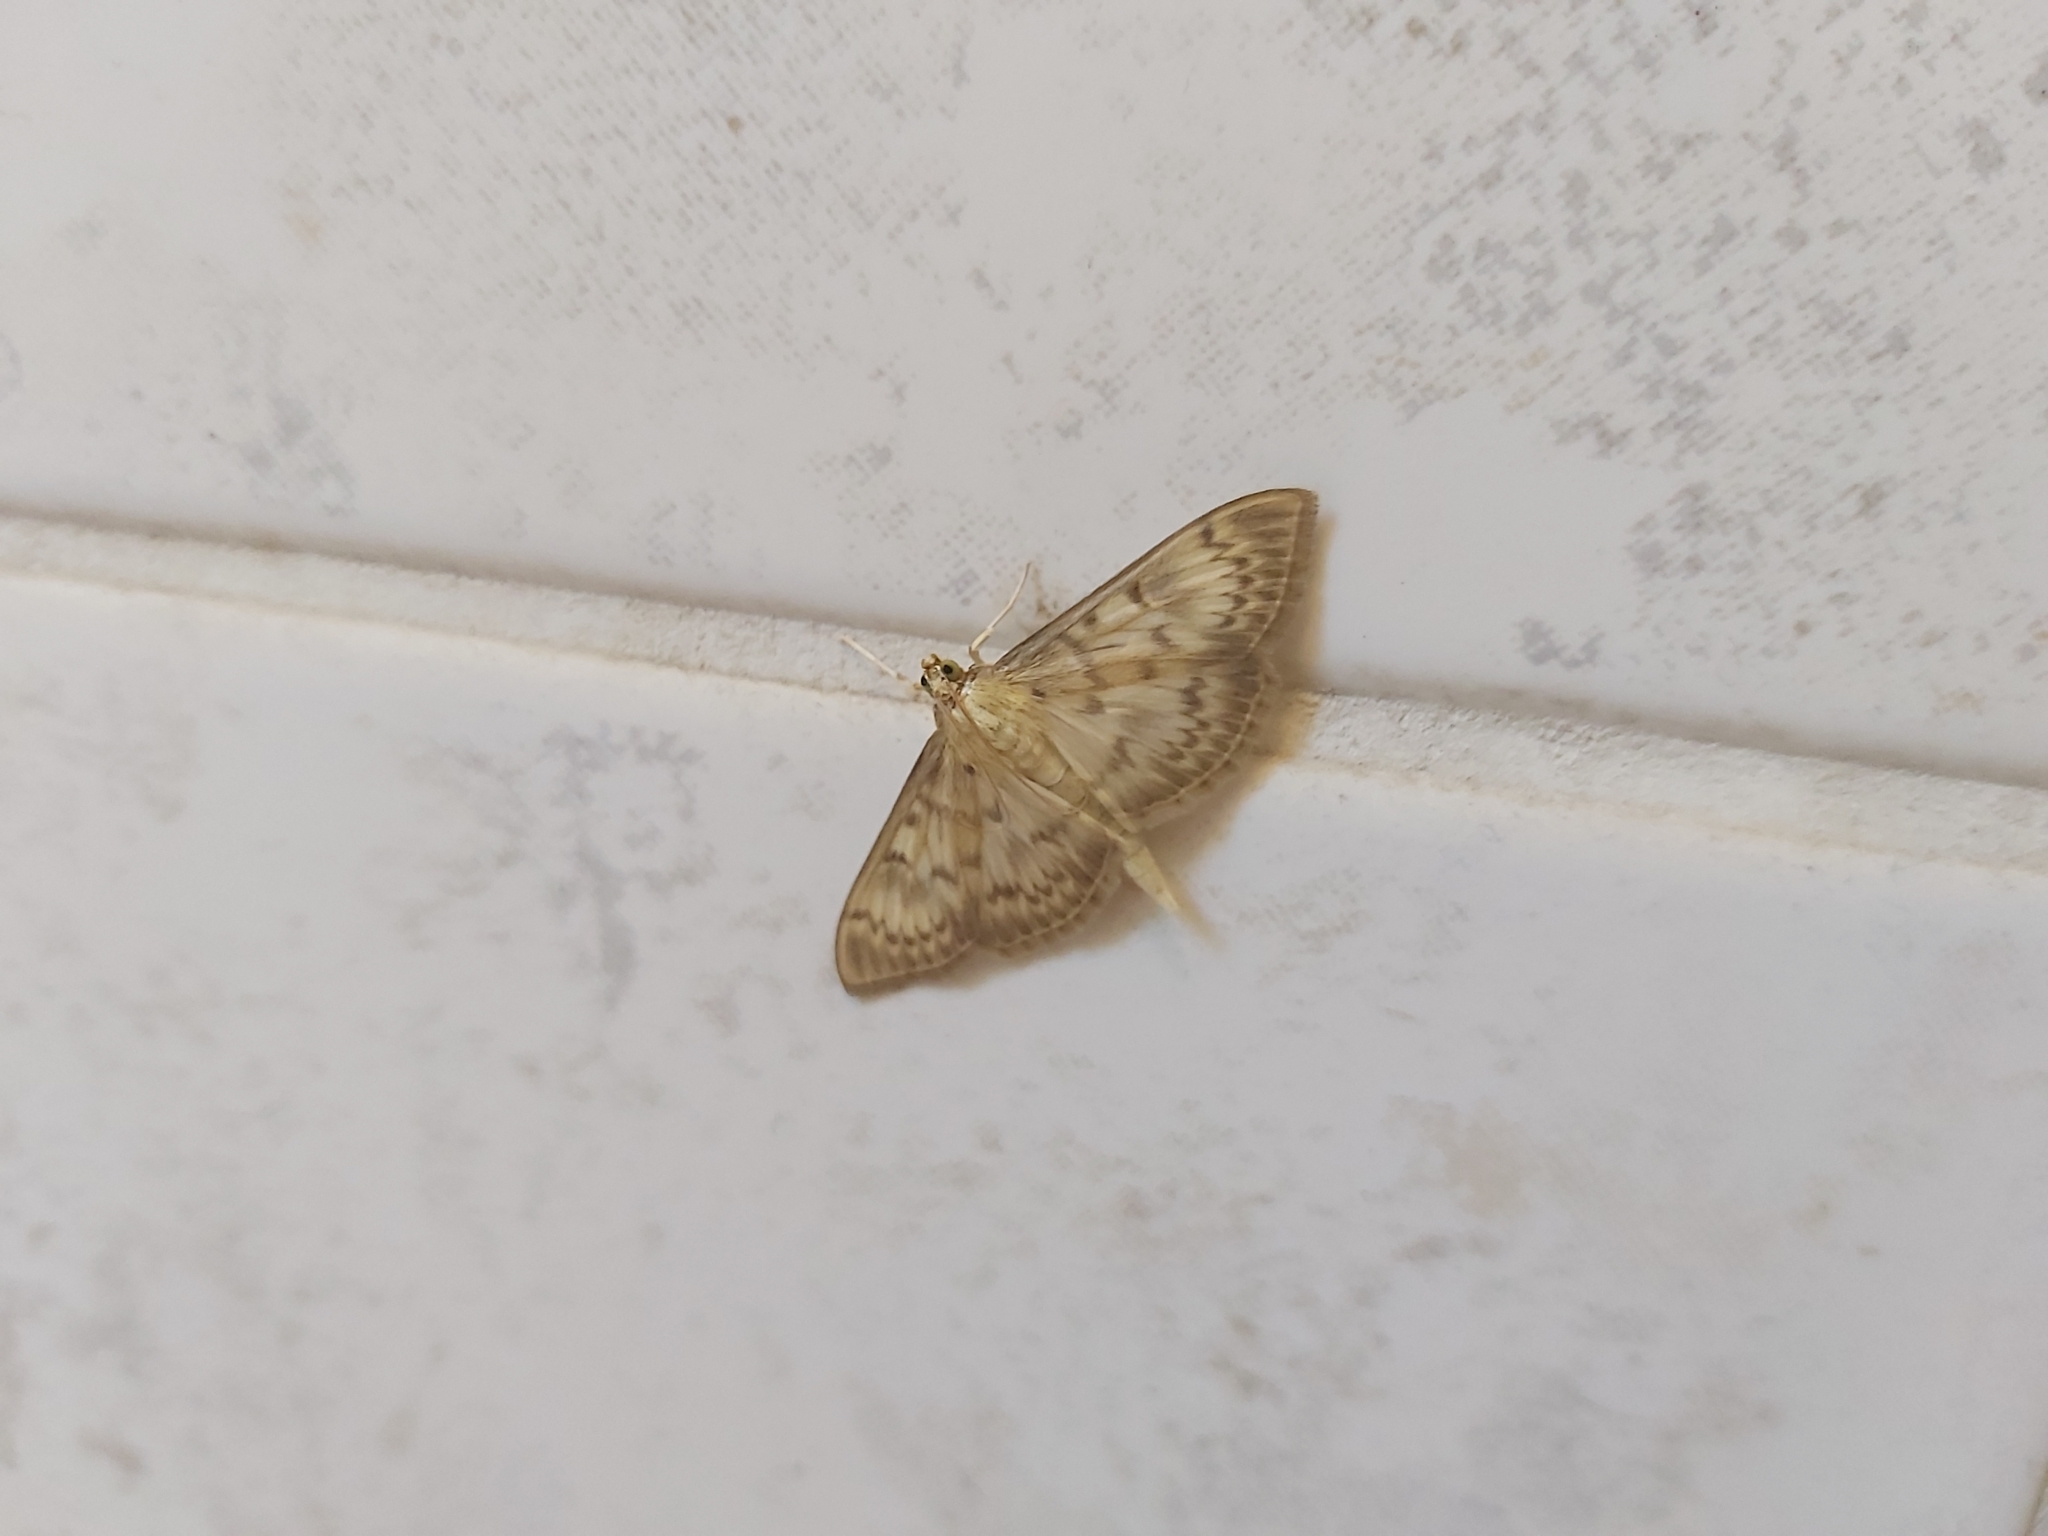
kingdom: Animalia
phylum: Arthropoda
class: Insecta
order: Lepidoptera
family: Crambidae
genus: Patania
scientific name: Patania ruralis
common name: Mother of pearl
